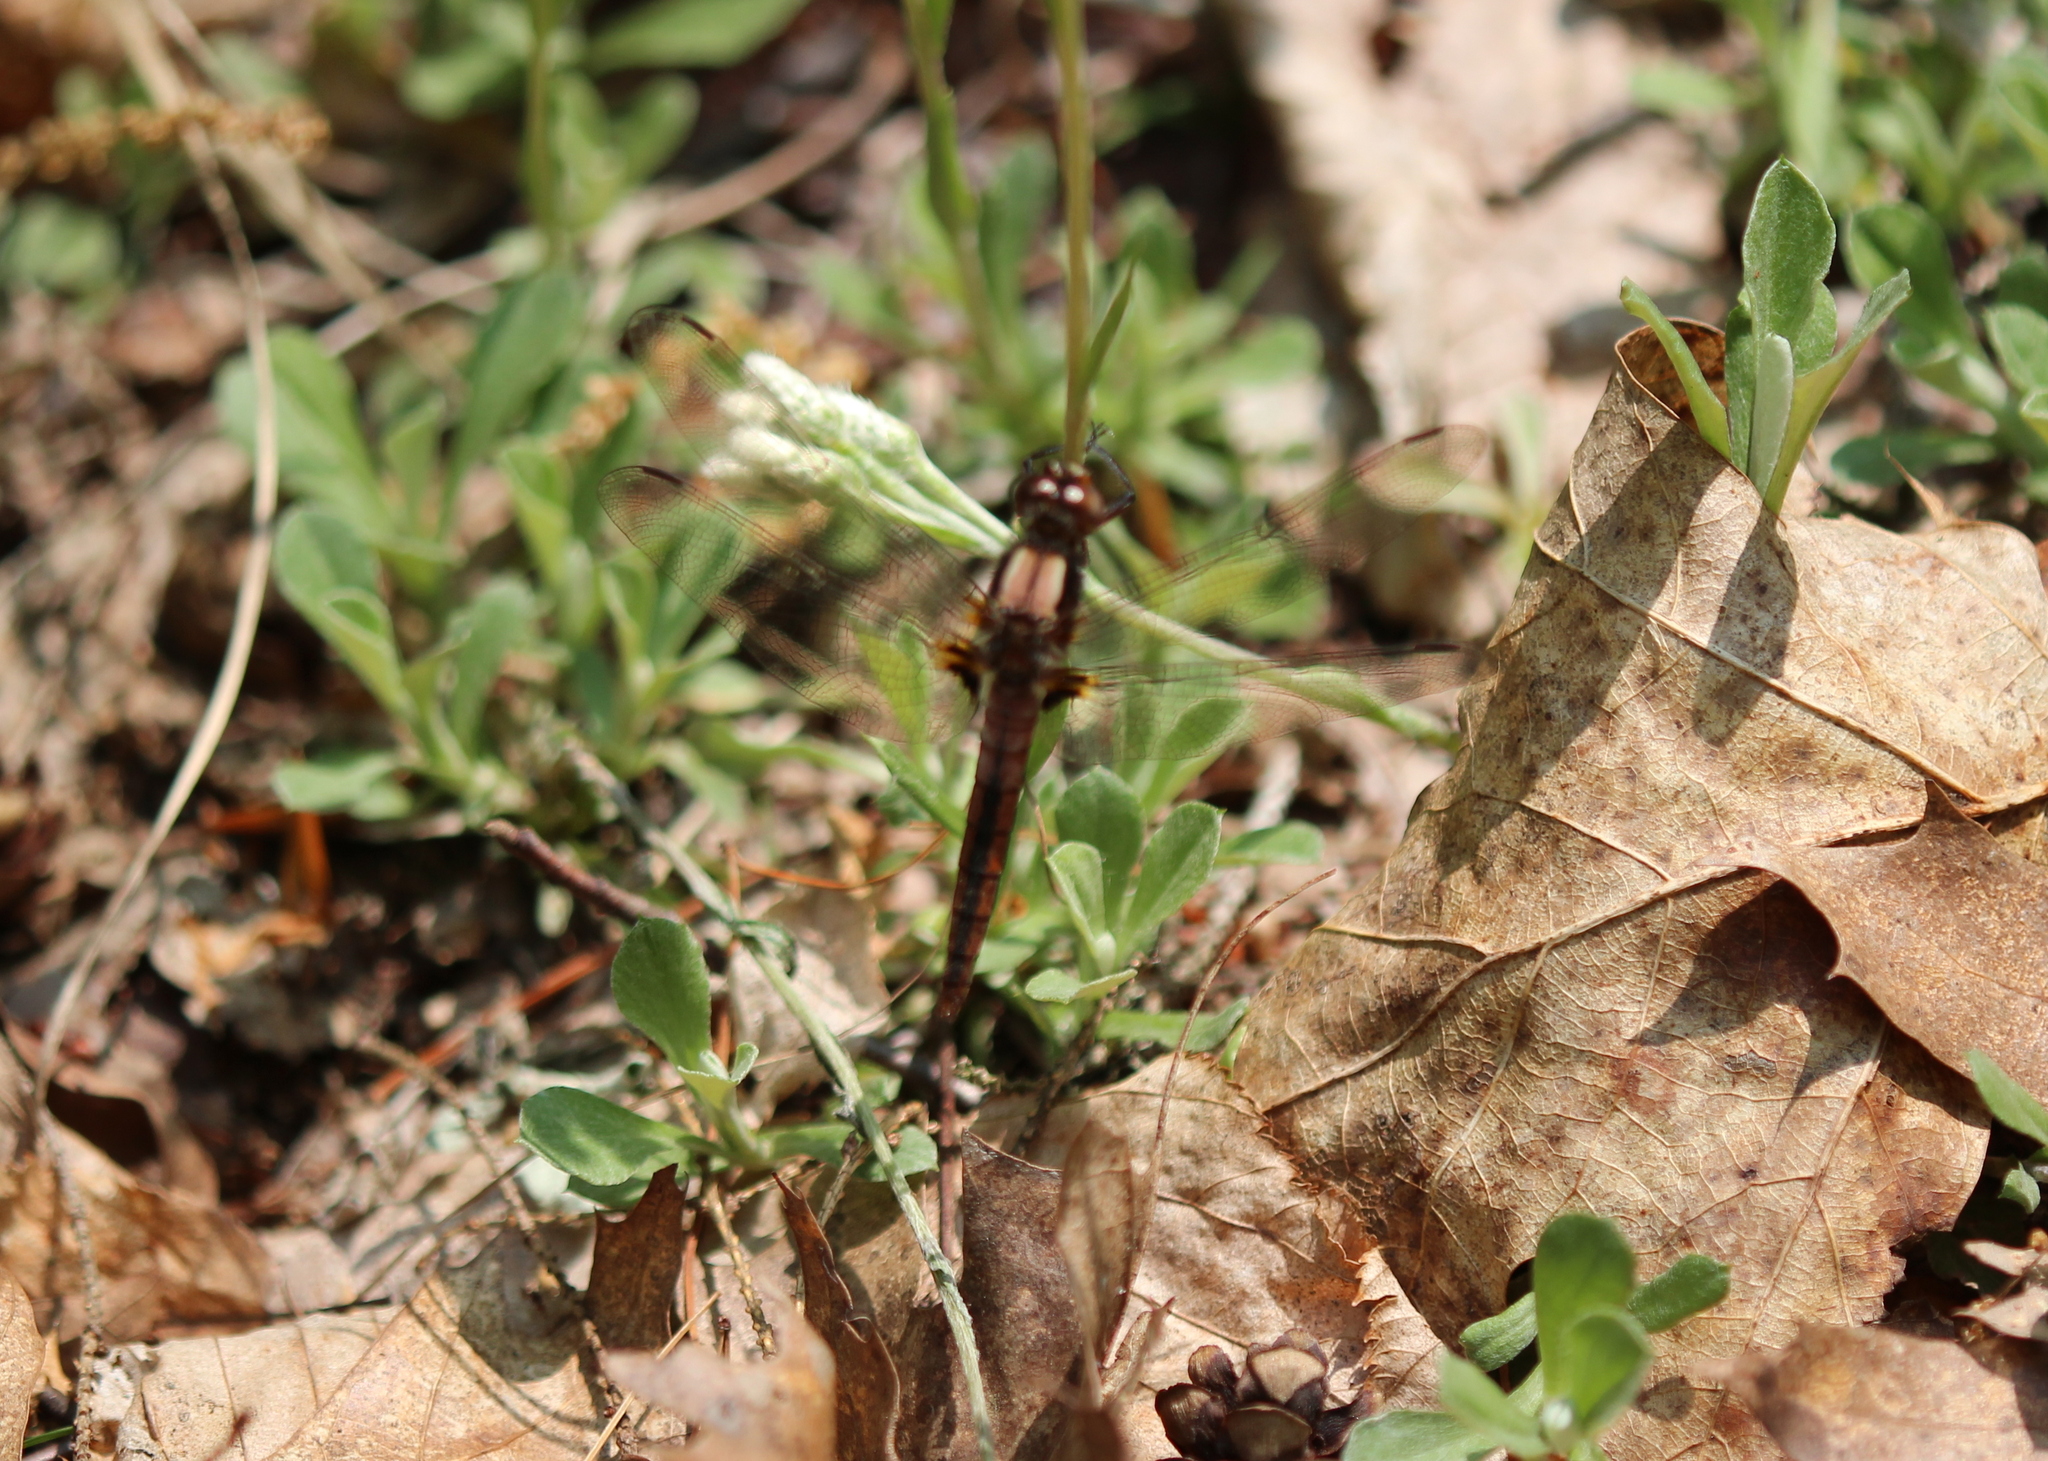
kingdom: Animalia
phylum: Arthropoda
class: Insecta
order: Odonata
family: Libellulidae
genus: Ladona
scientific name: Ladona julia
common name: Chalk-fronted corporal
